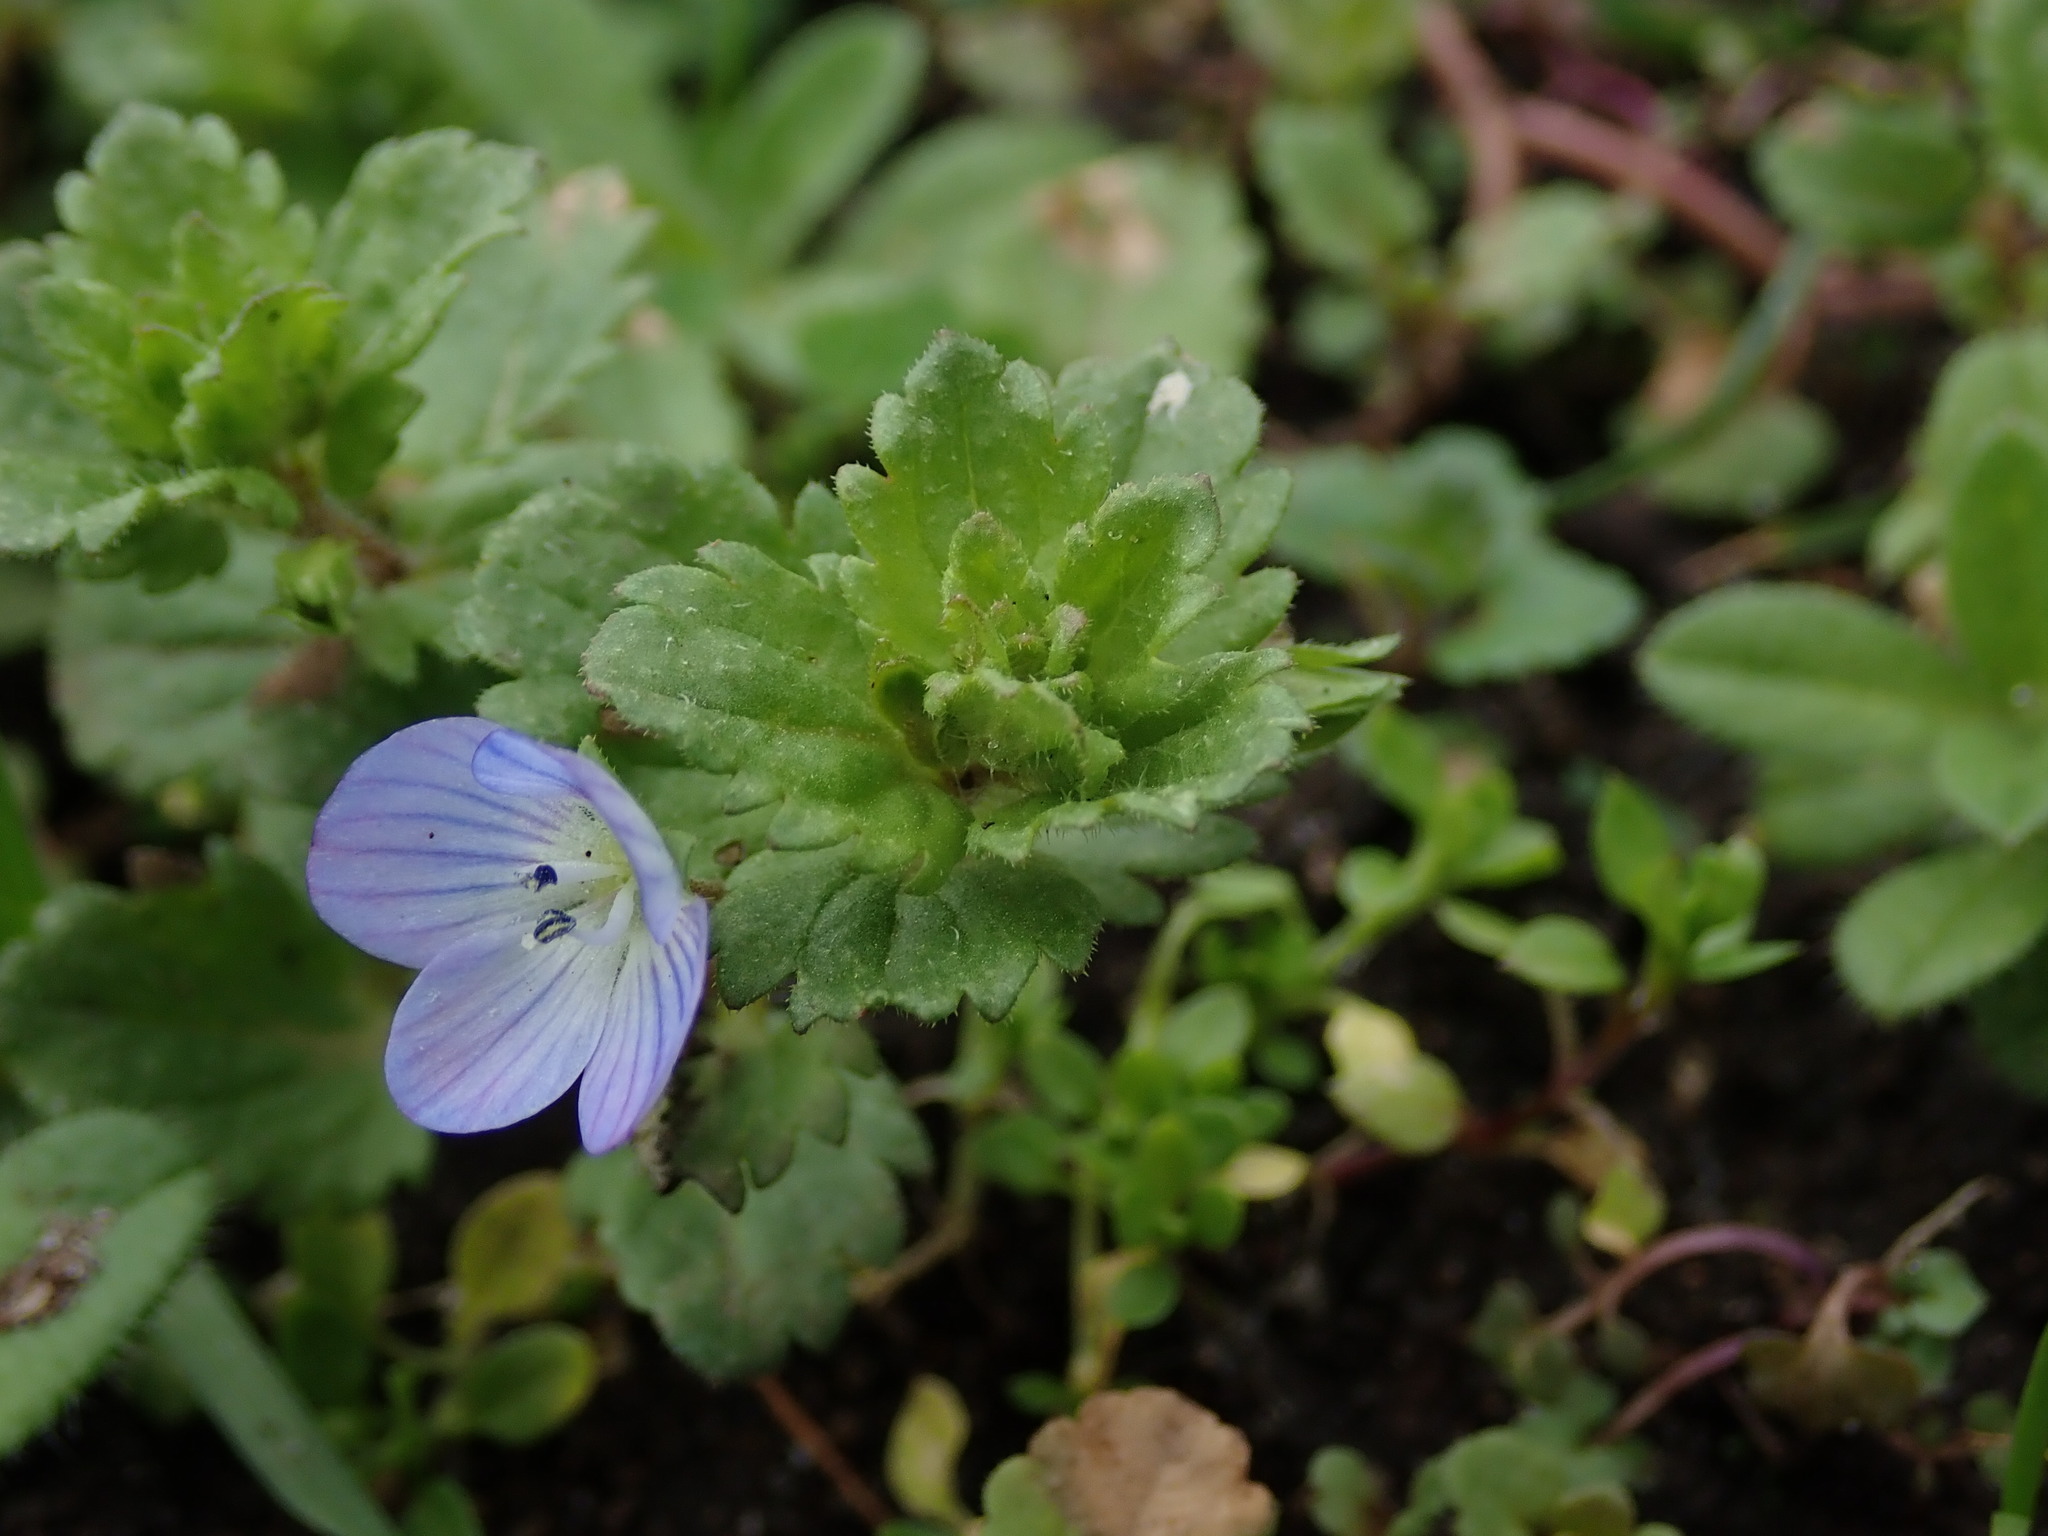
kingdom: Plantae
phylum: Tracheophyta
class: Magnoliopsida
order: Lamiales
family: Plantaginaceae
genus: Veronica
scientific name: Veronica persica
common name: Common field-speedwell
